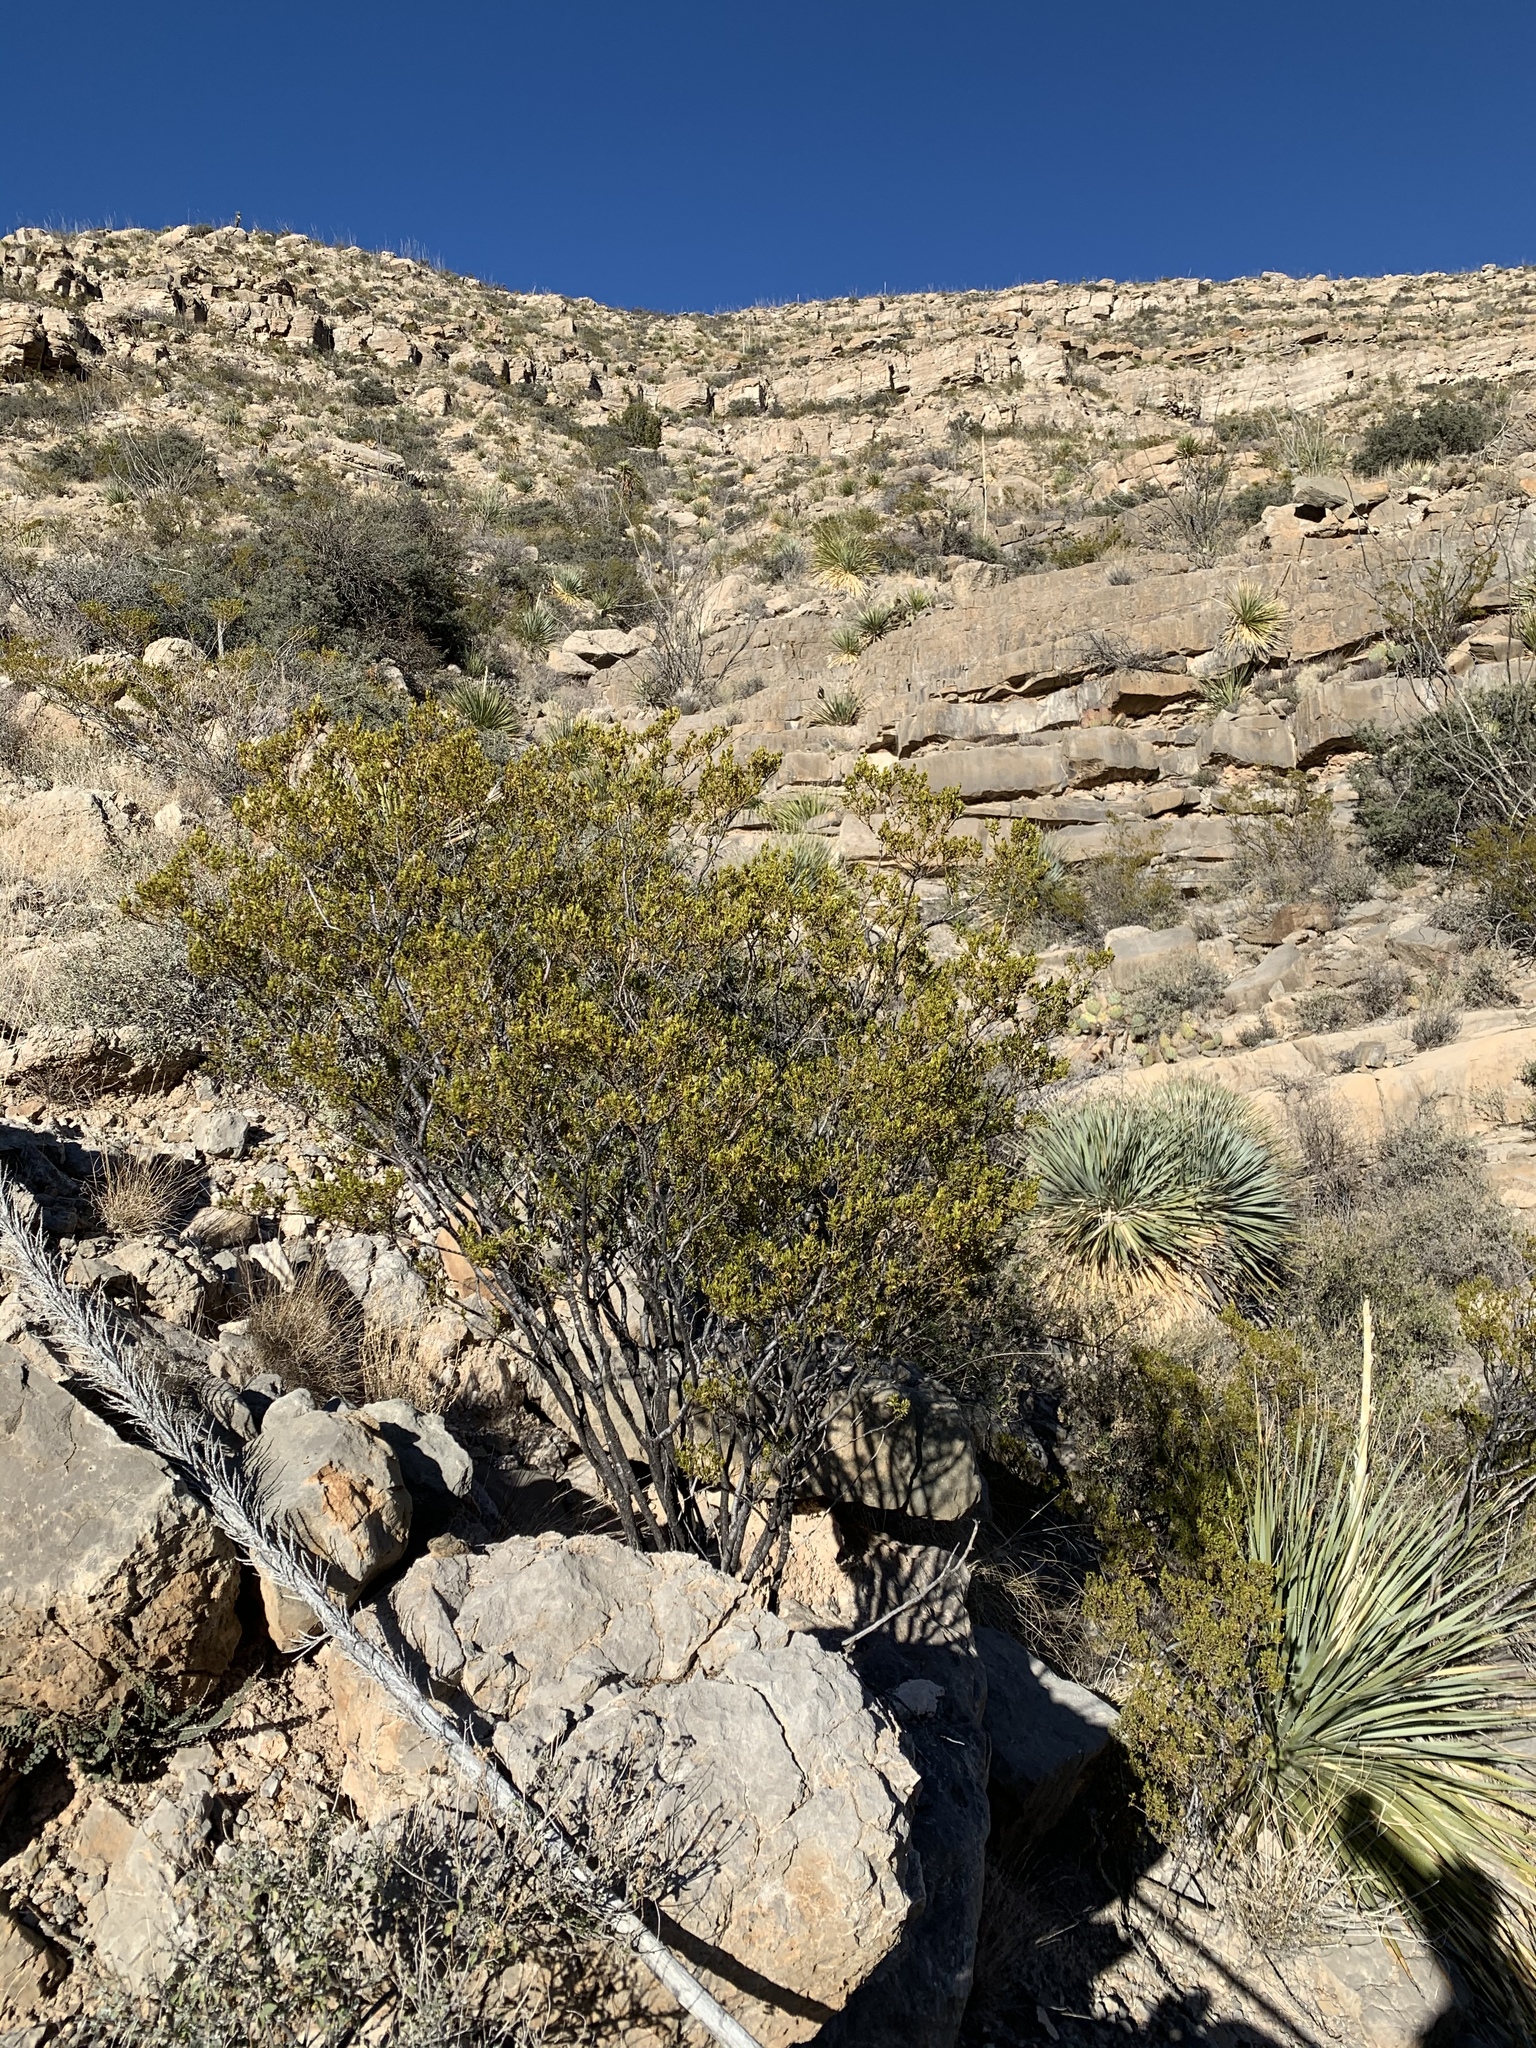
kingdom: Plantae
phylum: Tracheophyta
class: Magnoliopsida
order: Zygophyllales
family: Zygophyllaceae
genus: Larrea
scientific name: Larrea tridentata
